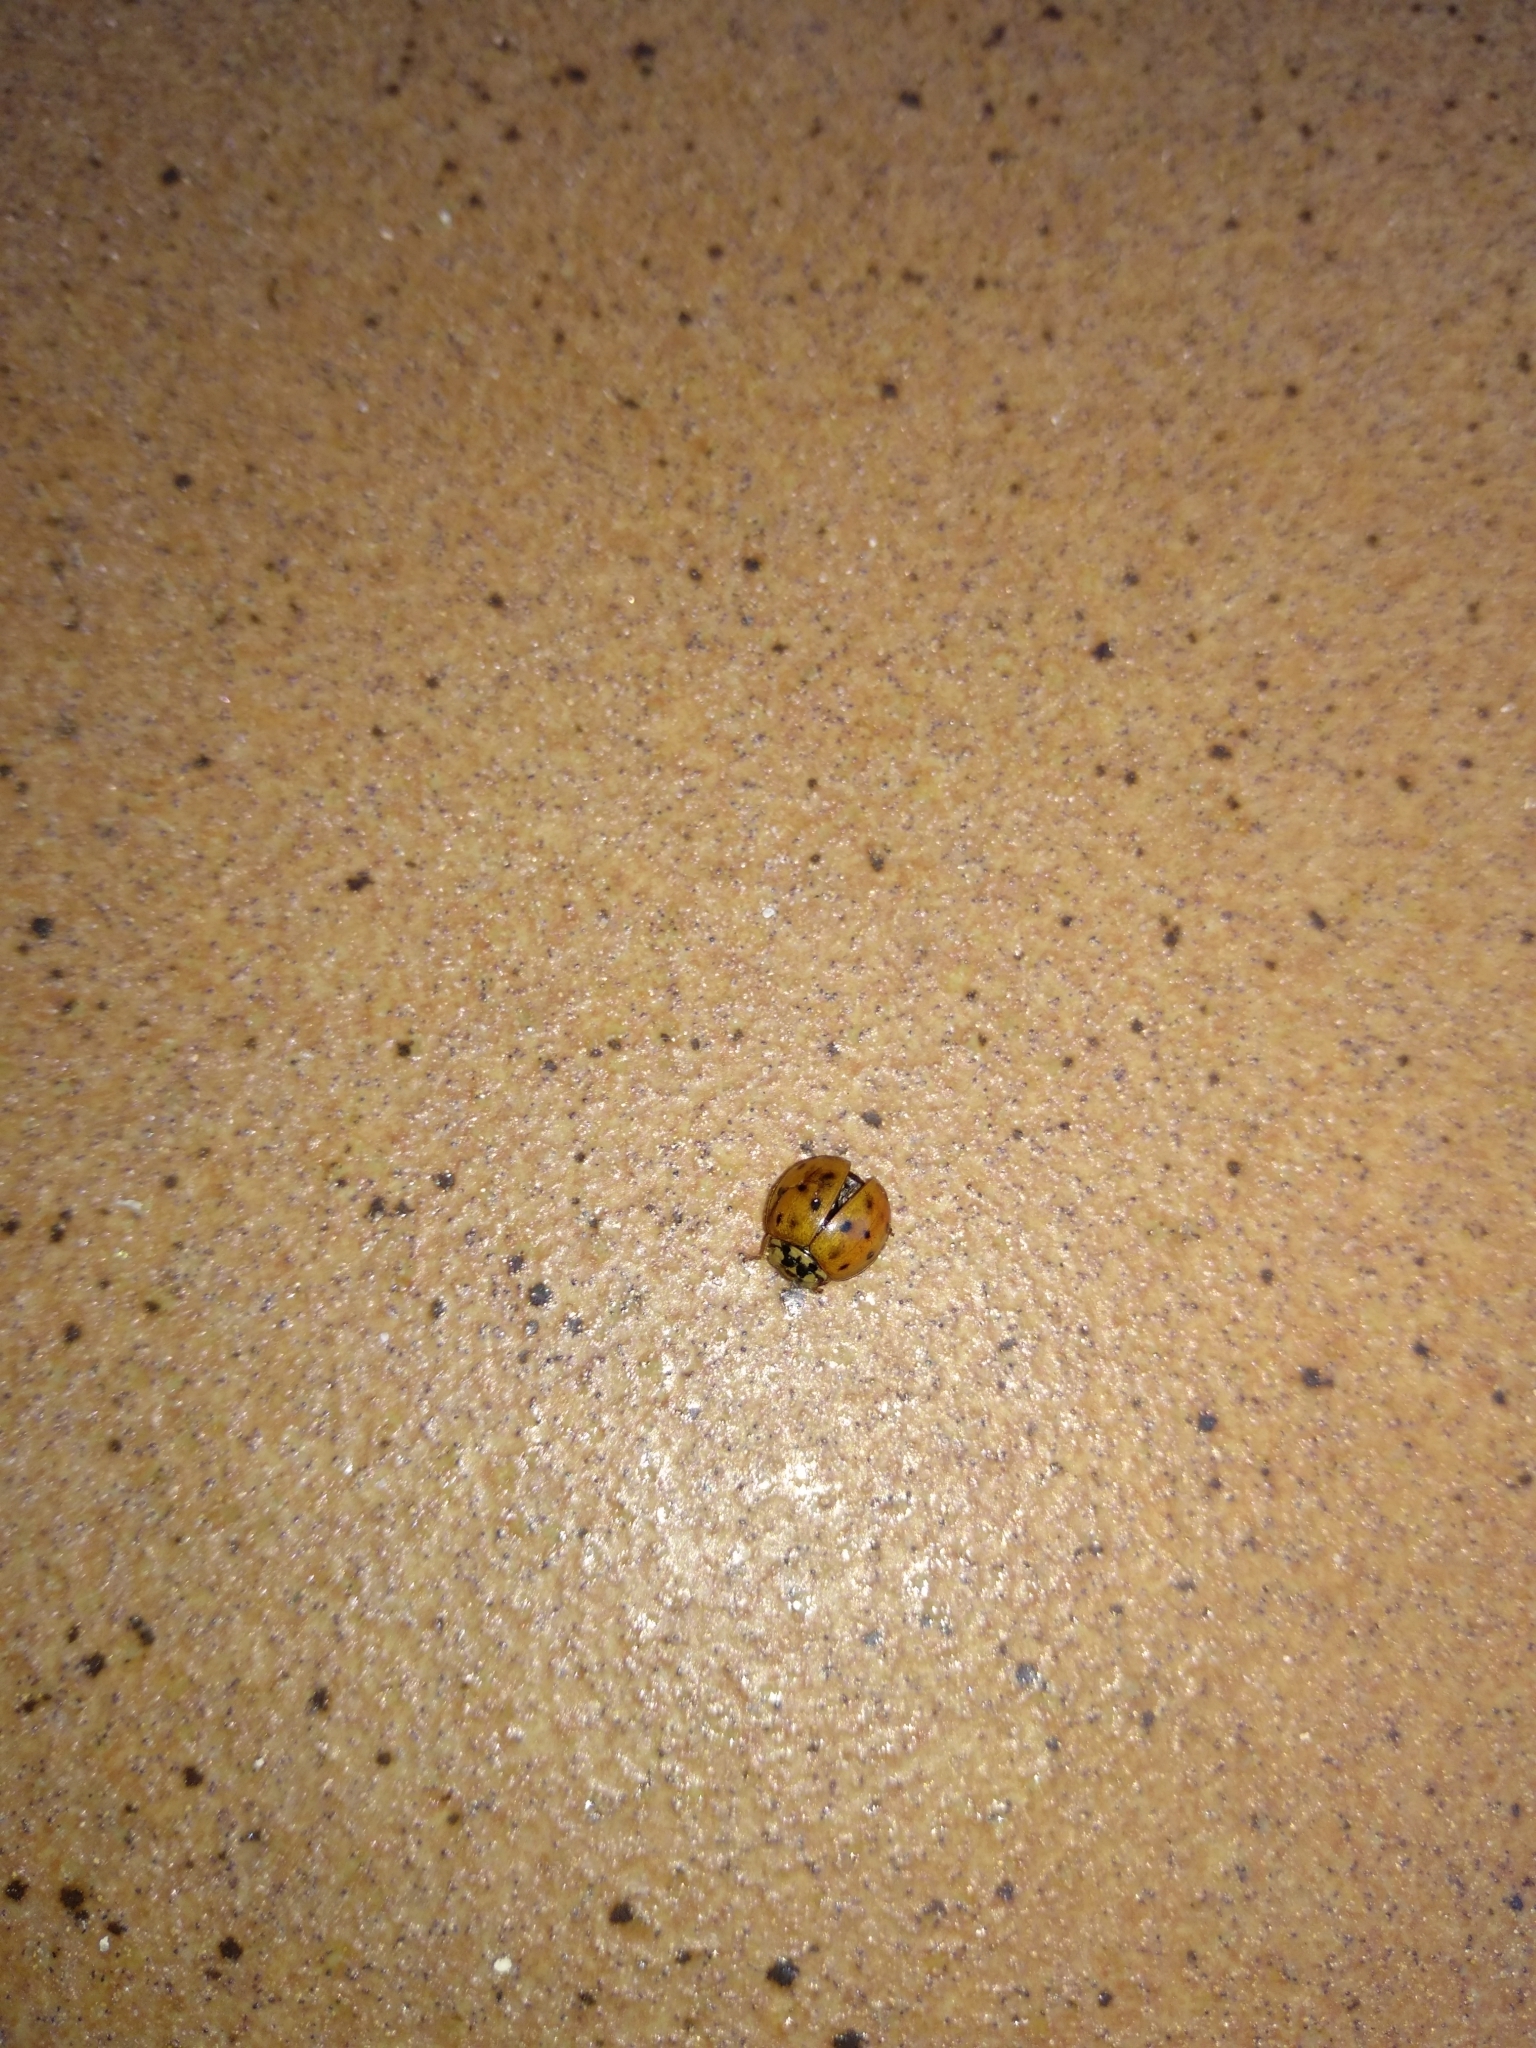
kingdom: Animalia
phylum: Arthropoda
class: Insecta
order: Coleoptera
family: Coccinellidae
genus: Harmonia
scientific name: Harmonia axyridis
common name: Harlequin ladybird
